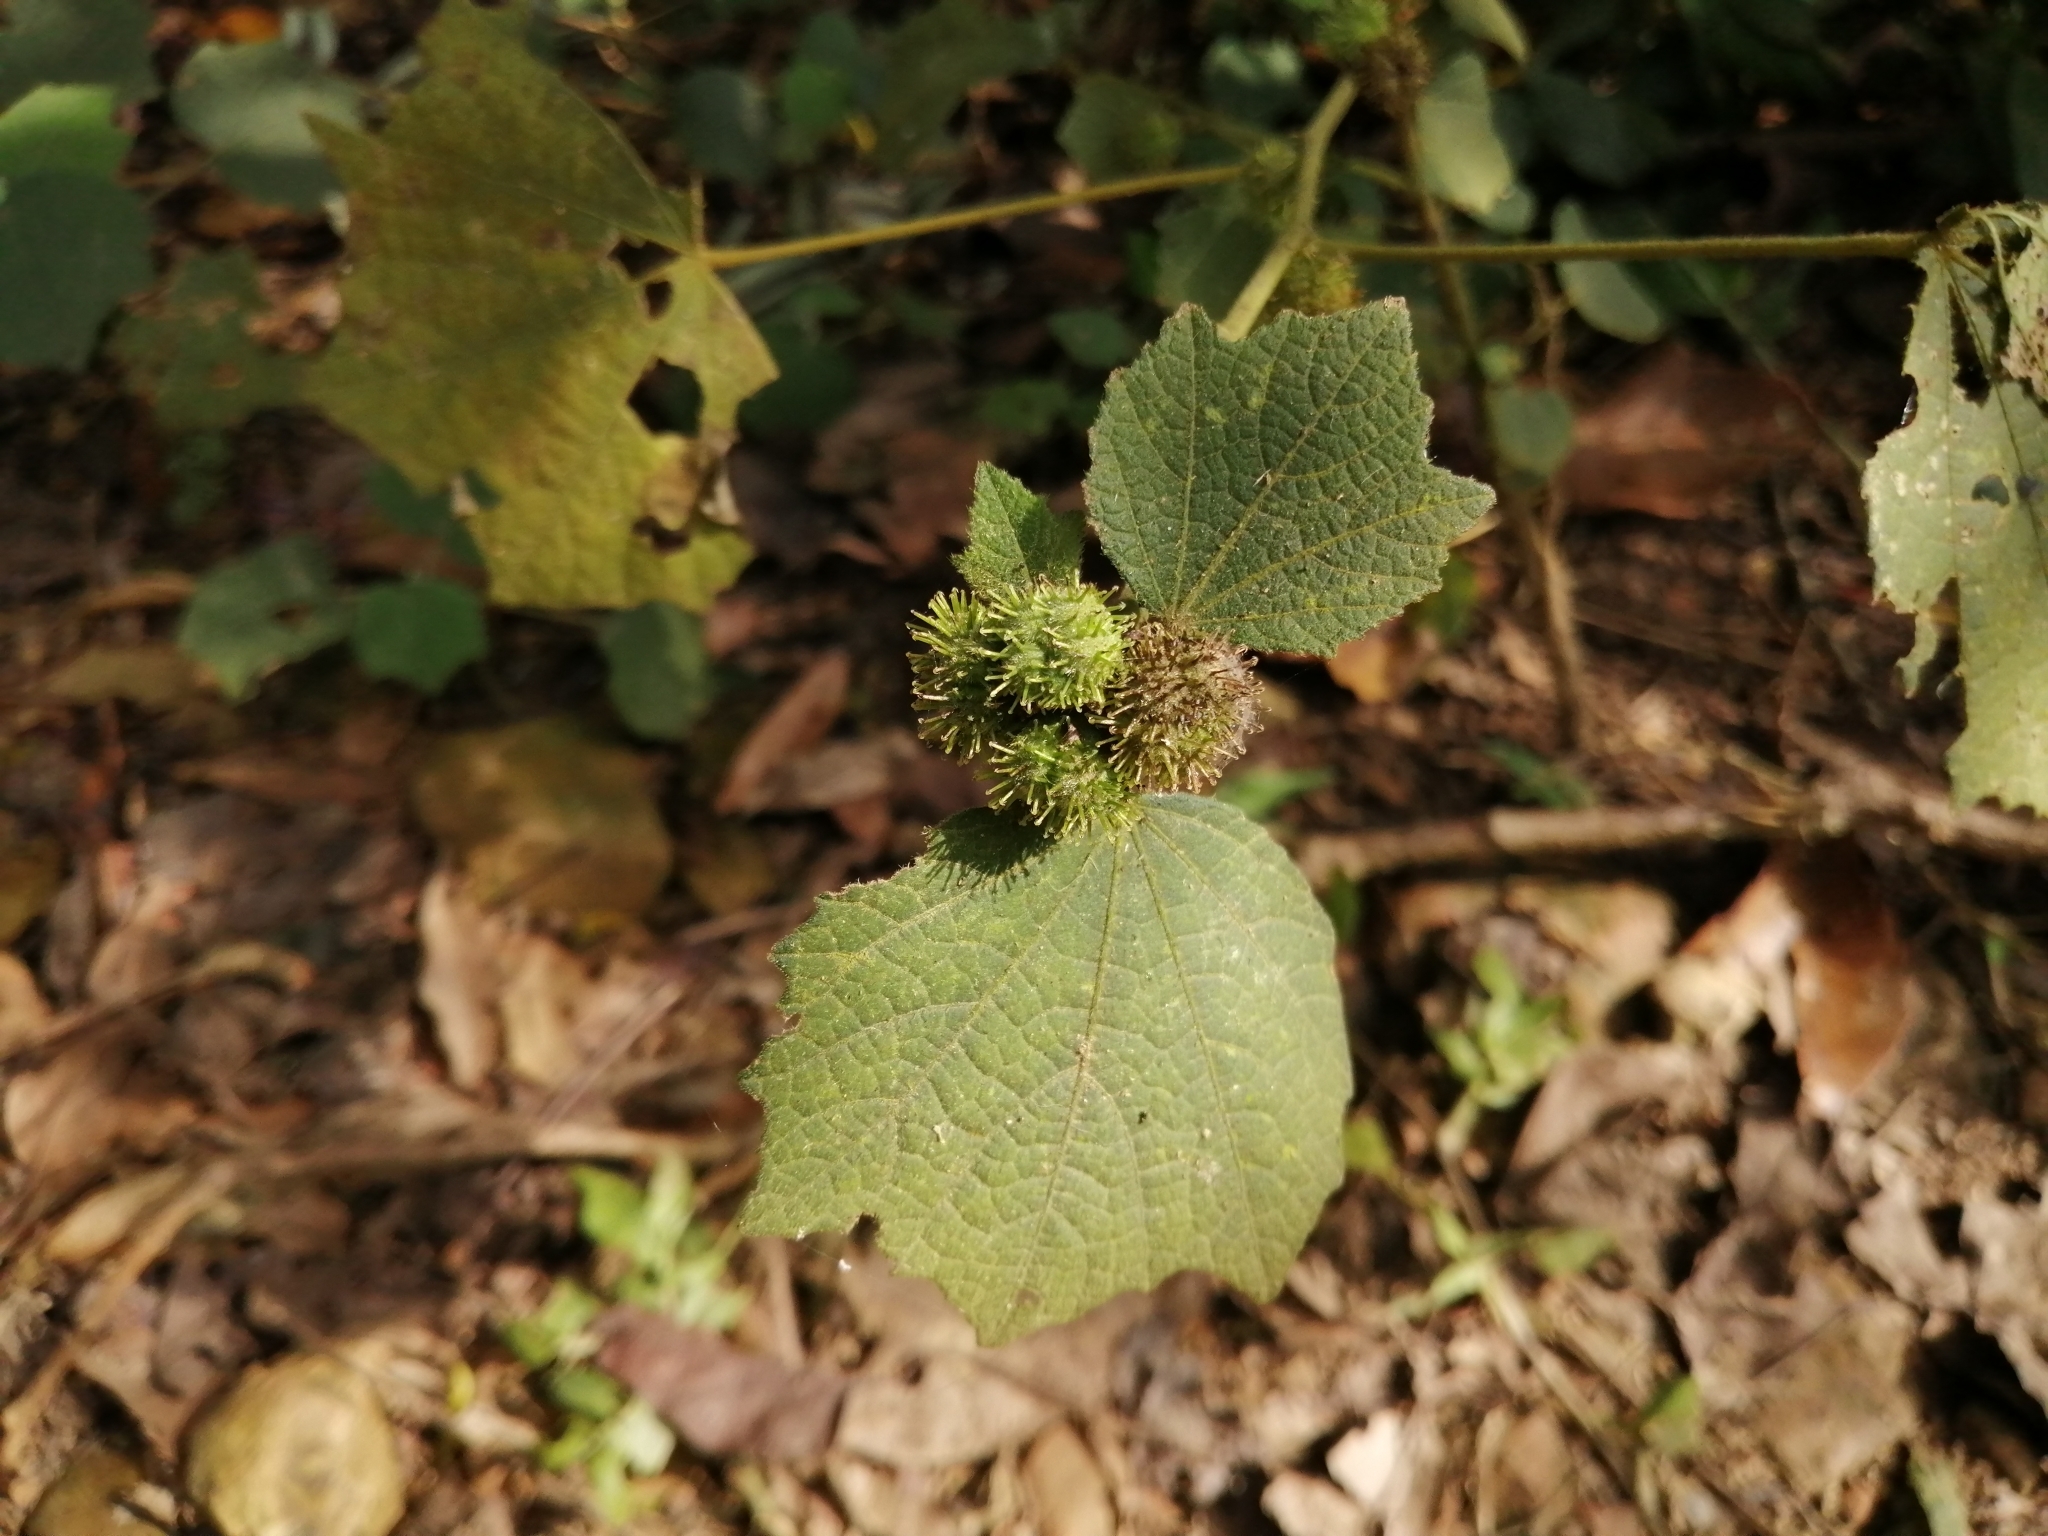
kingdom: Plantae
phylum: Tracheophyta
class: Magnoliopsida
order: Malvales
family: Malvaceae
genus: Urena
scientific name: Urena lobata
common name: Caesarweed
